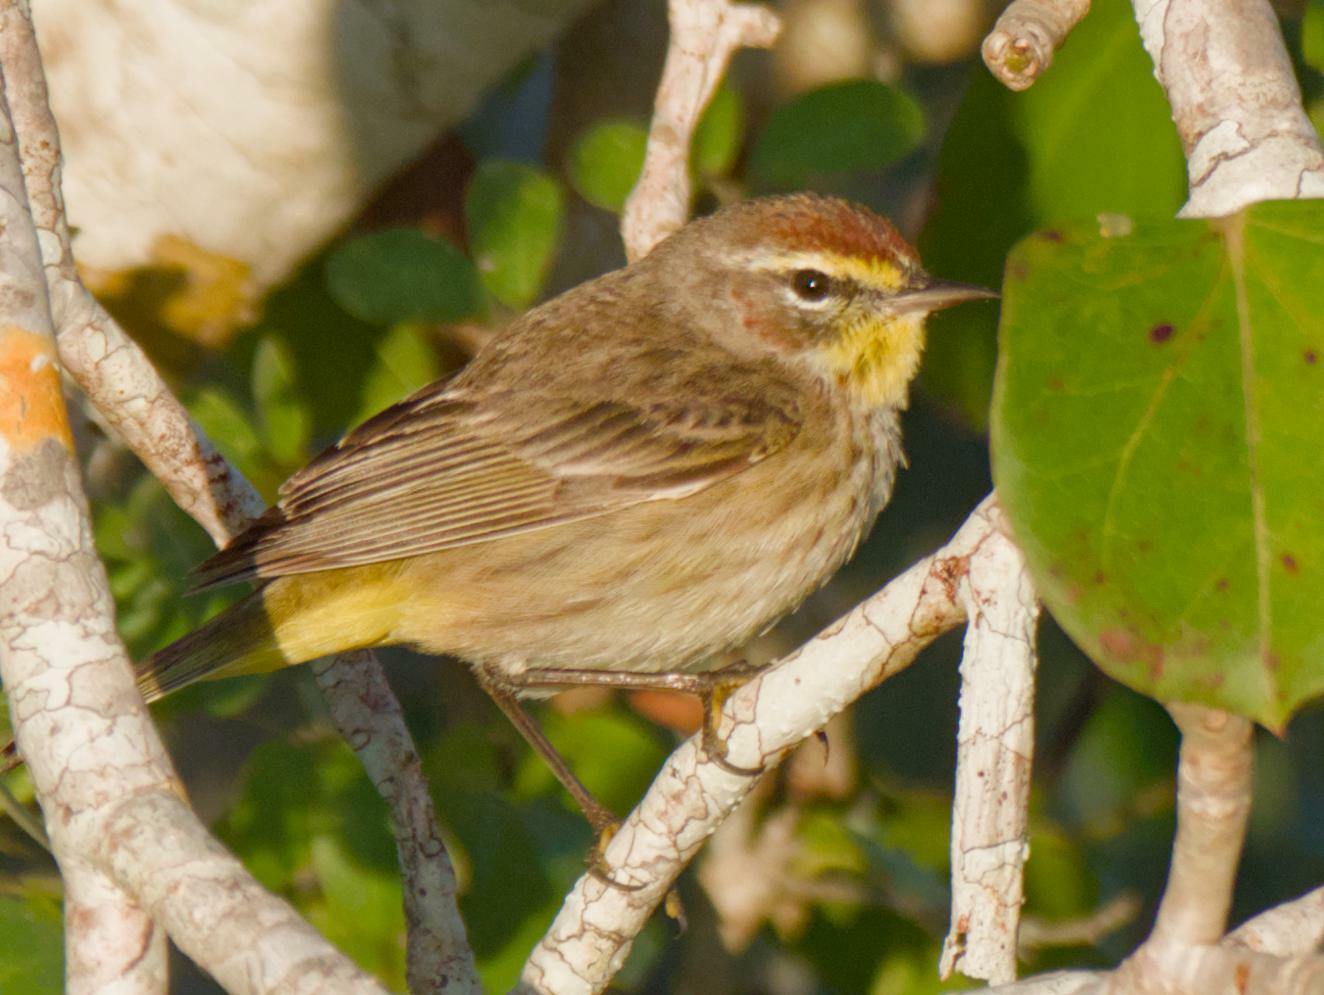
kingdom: Animalia
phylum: Chordata
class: Aves
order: Passeriformes
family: Parulidae
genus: Setophaga
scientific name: Setophaga palmarum
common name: Palm warbler
